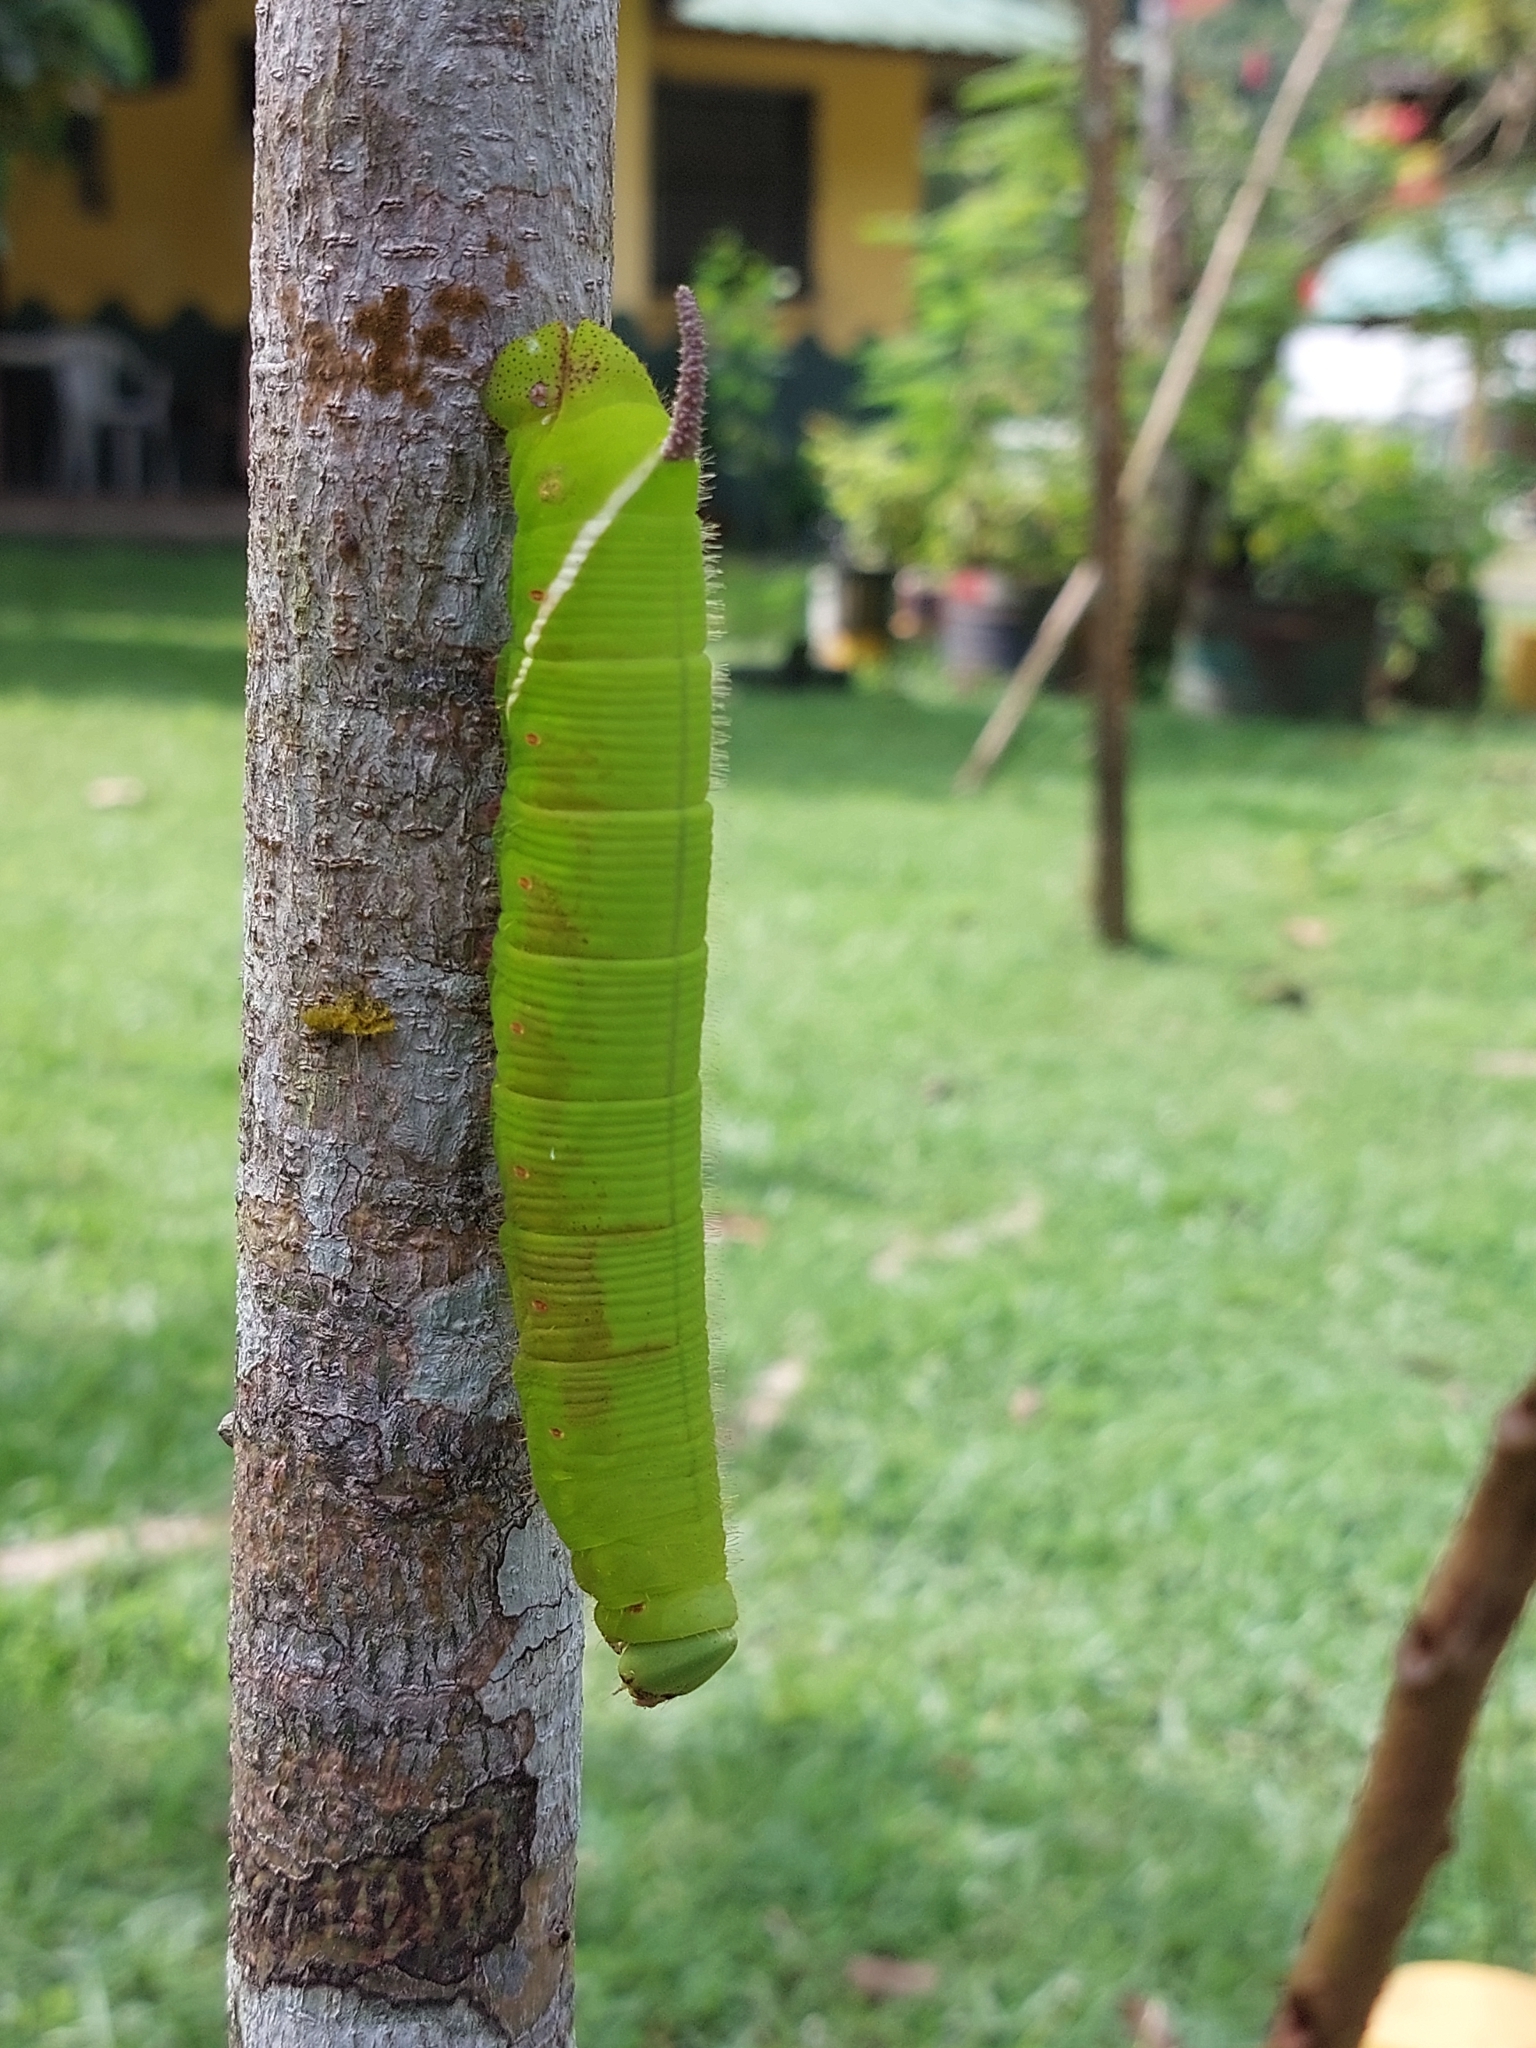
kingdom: Animalia
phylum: Arthropoda
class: Insecta
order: Lepidoptera
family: Sphingidae
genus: Cocytius
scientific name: Cocytius antaeus
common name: Giant sphinx
